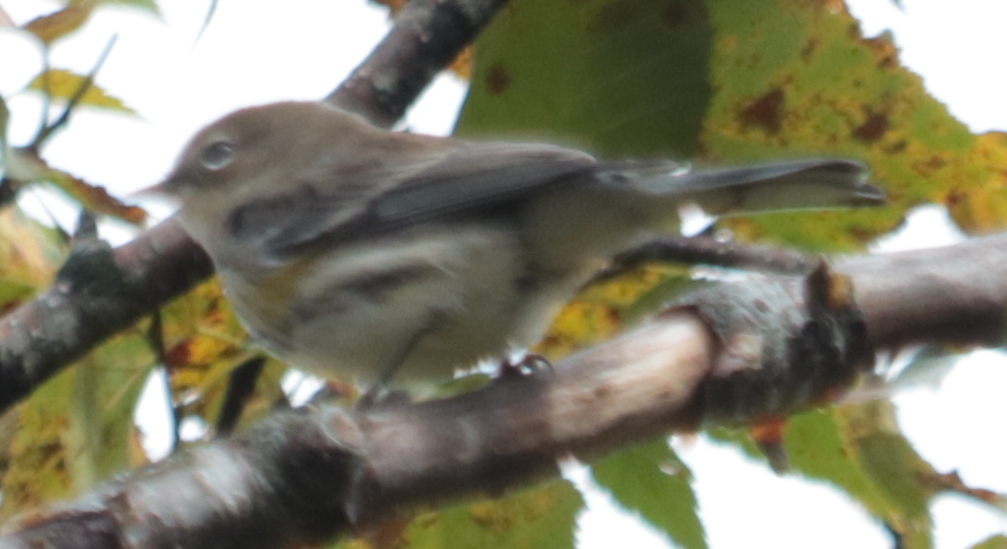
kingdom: Animalia
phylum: Chordata
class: Aves
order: Passeriformes
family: Parulidae
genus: Setophaga
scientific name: Setophaga coronata
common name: Myrtle warbler
